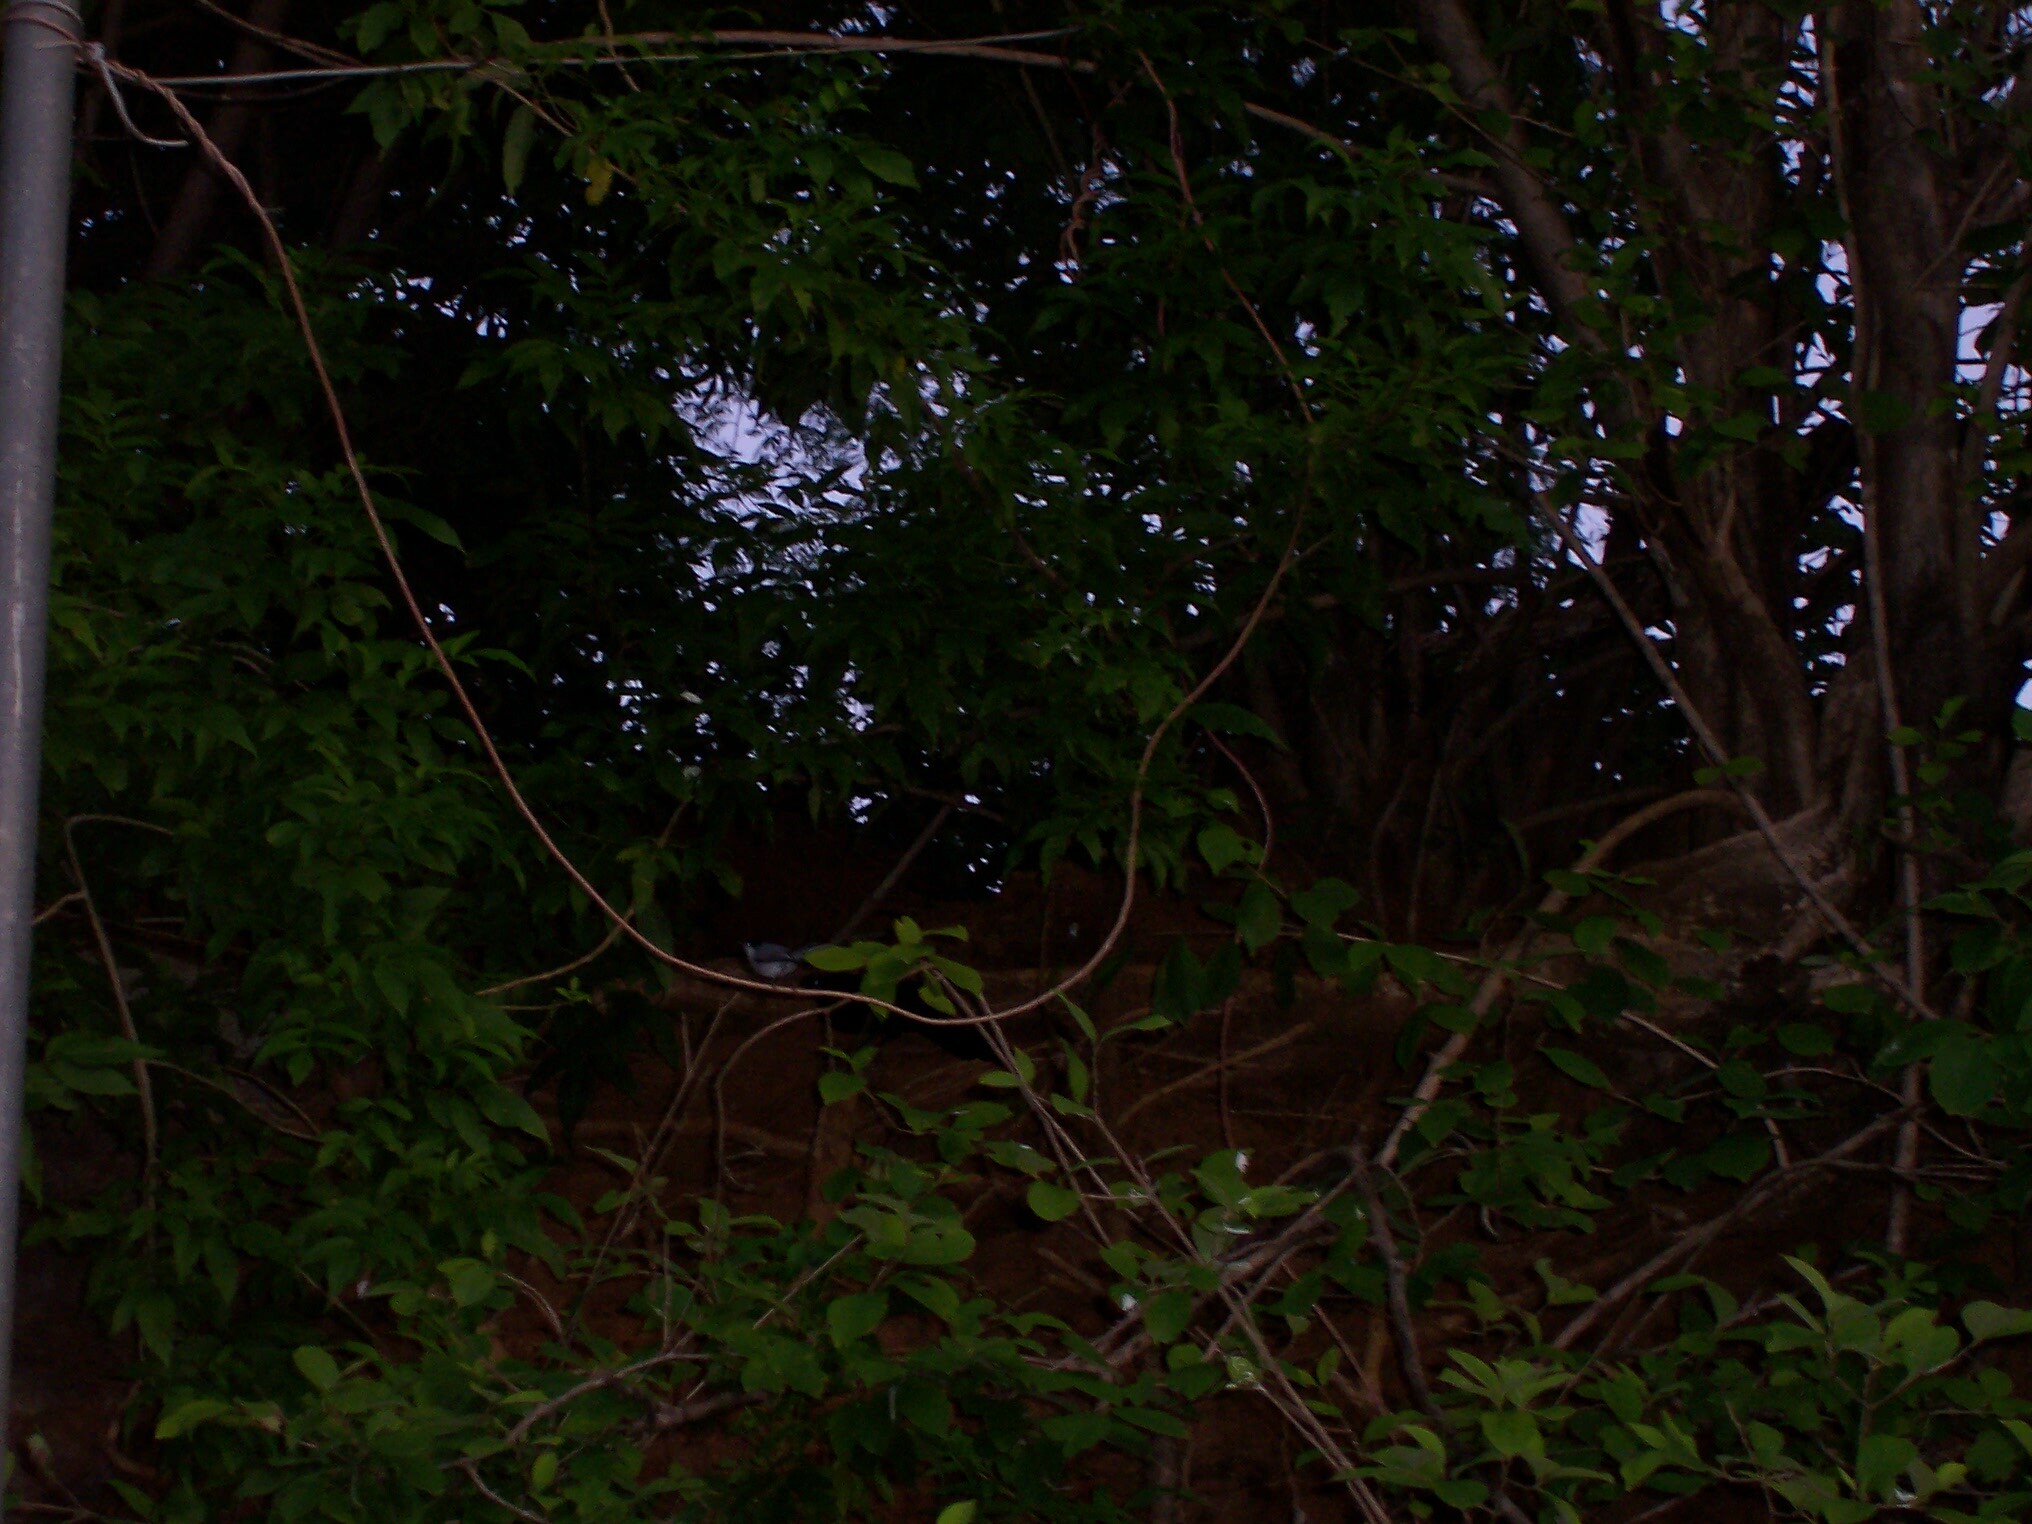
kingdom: Animalia
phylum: Chordata
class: Aves
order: Passeriformes
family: Polioptilidae
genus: Polioptila
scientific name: Polioptila albiloris
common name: White-lored gnatcatcher
